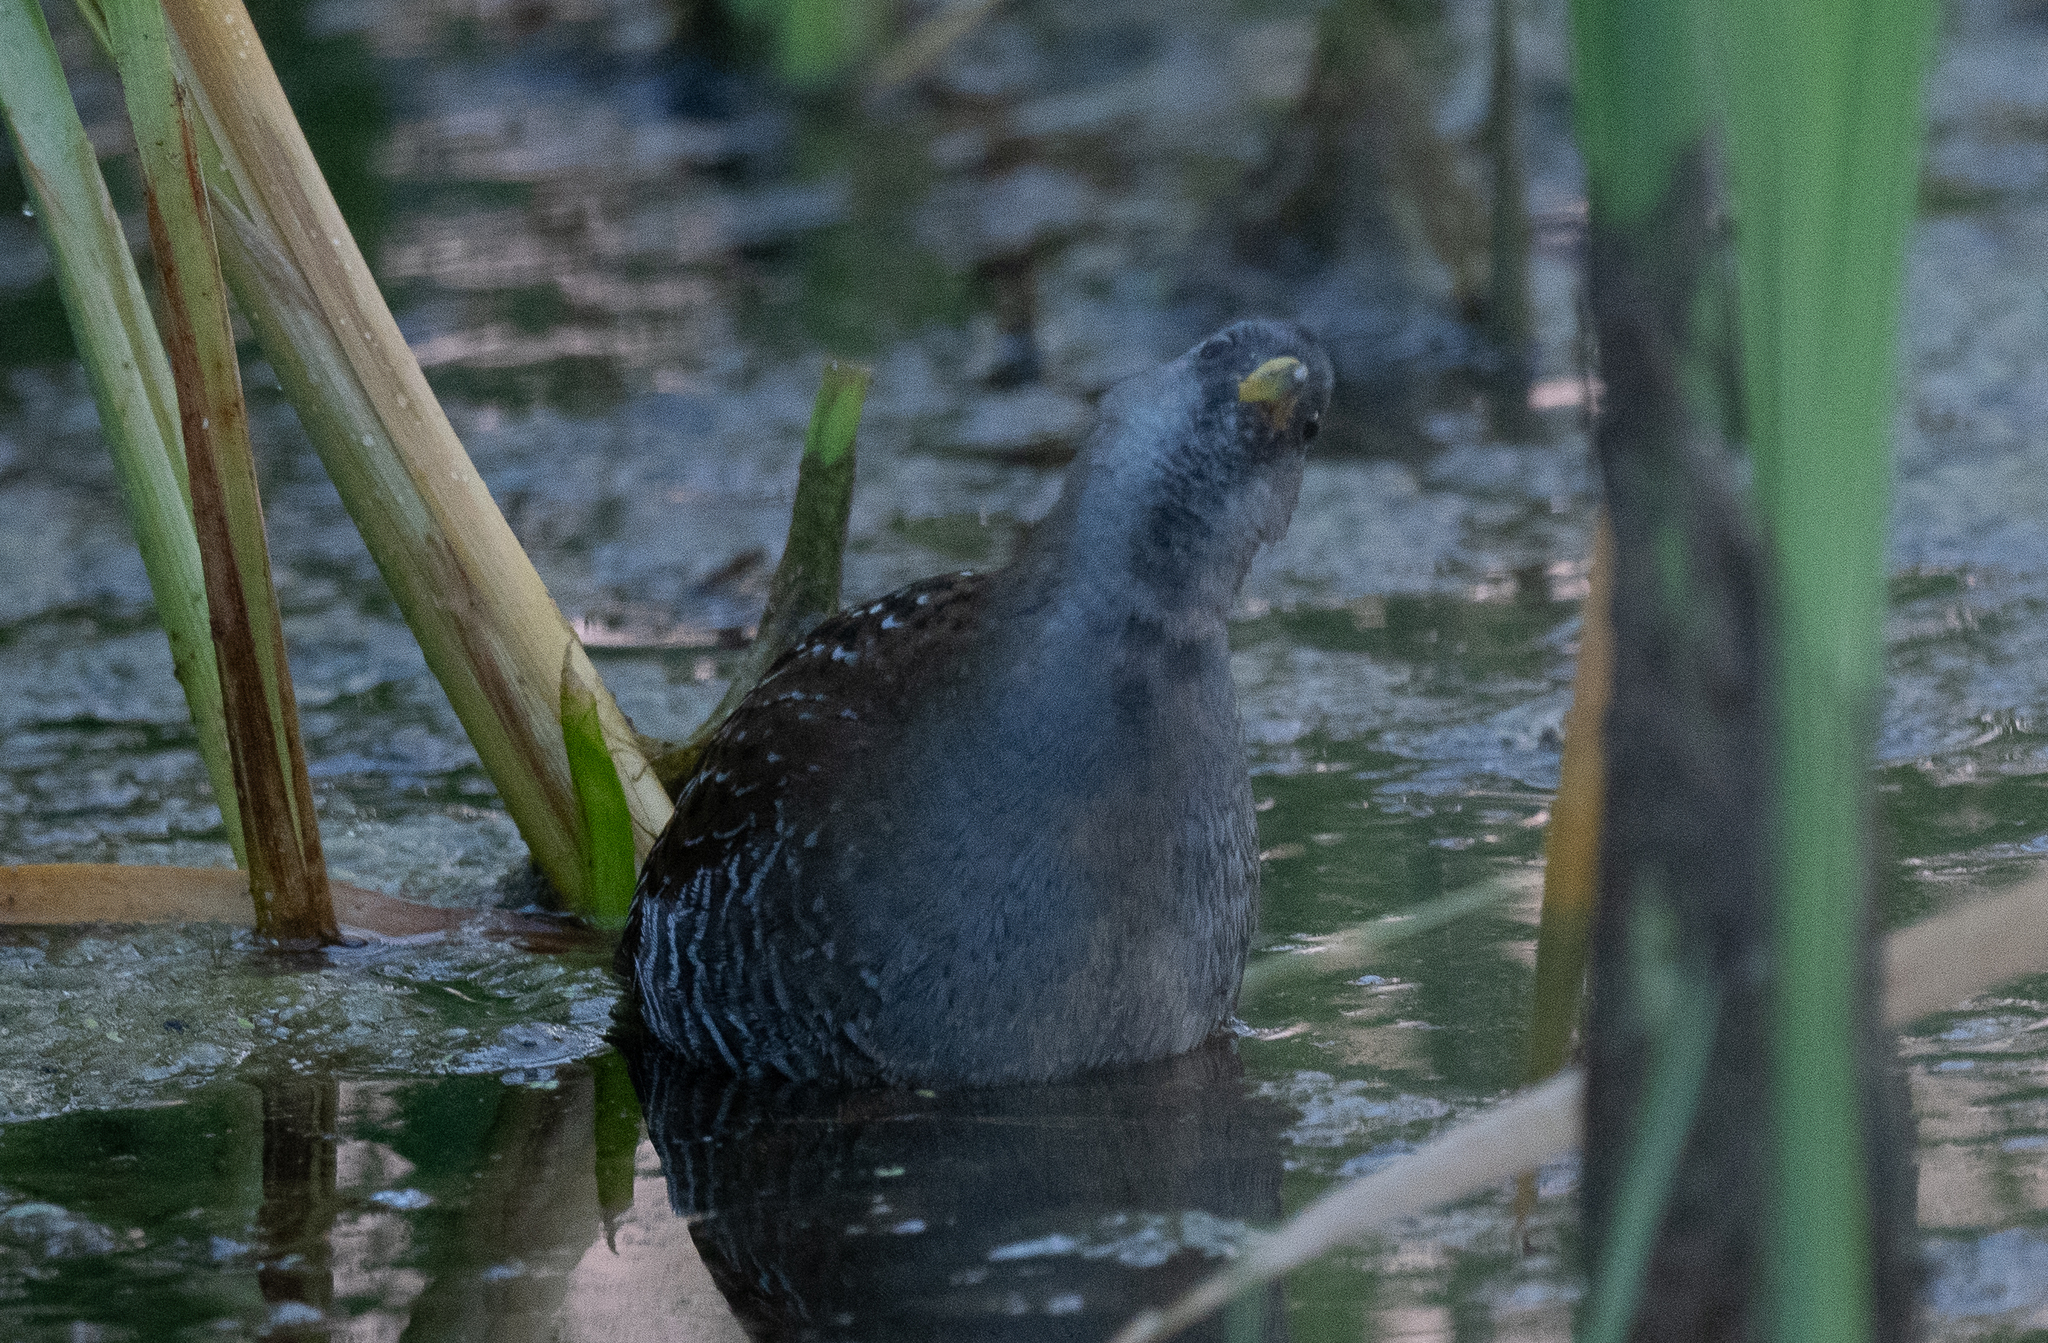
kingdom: Animalia
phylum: Chordata
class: Aves
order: Gruiformes
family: Rallidae
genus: Porzana
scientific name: Porzana carolina
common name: Sora
